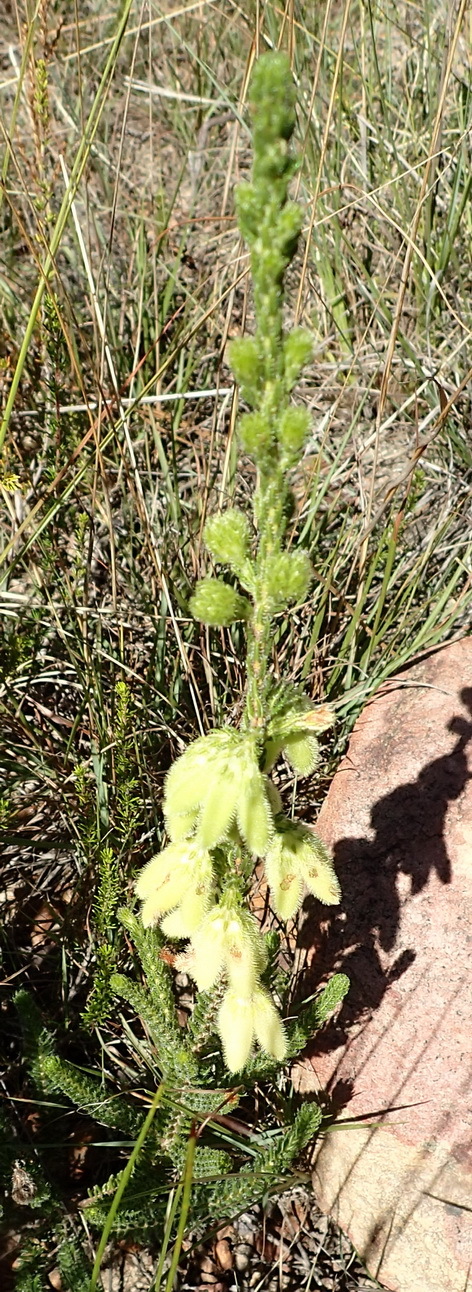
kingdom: Plantae
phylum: Tracheophyta
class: Magnoliopsida
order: Ericales
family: Ericaceae
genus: Erica
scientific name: Erica sparmannii
